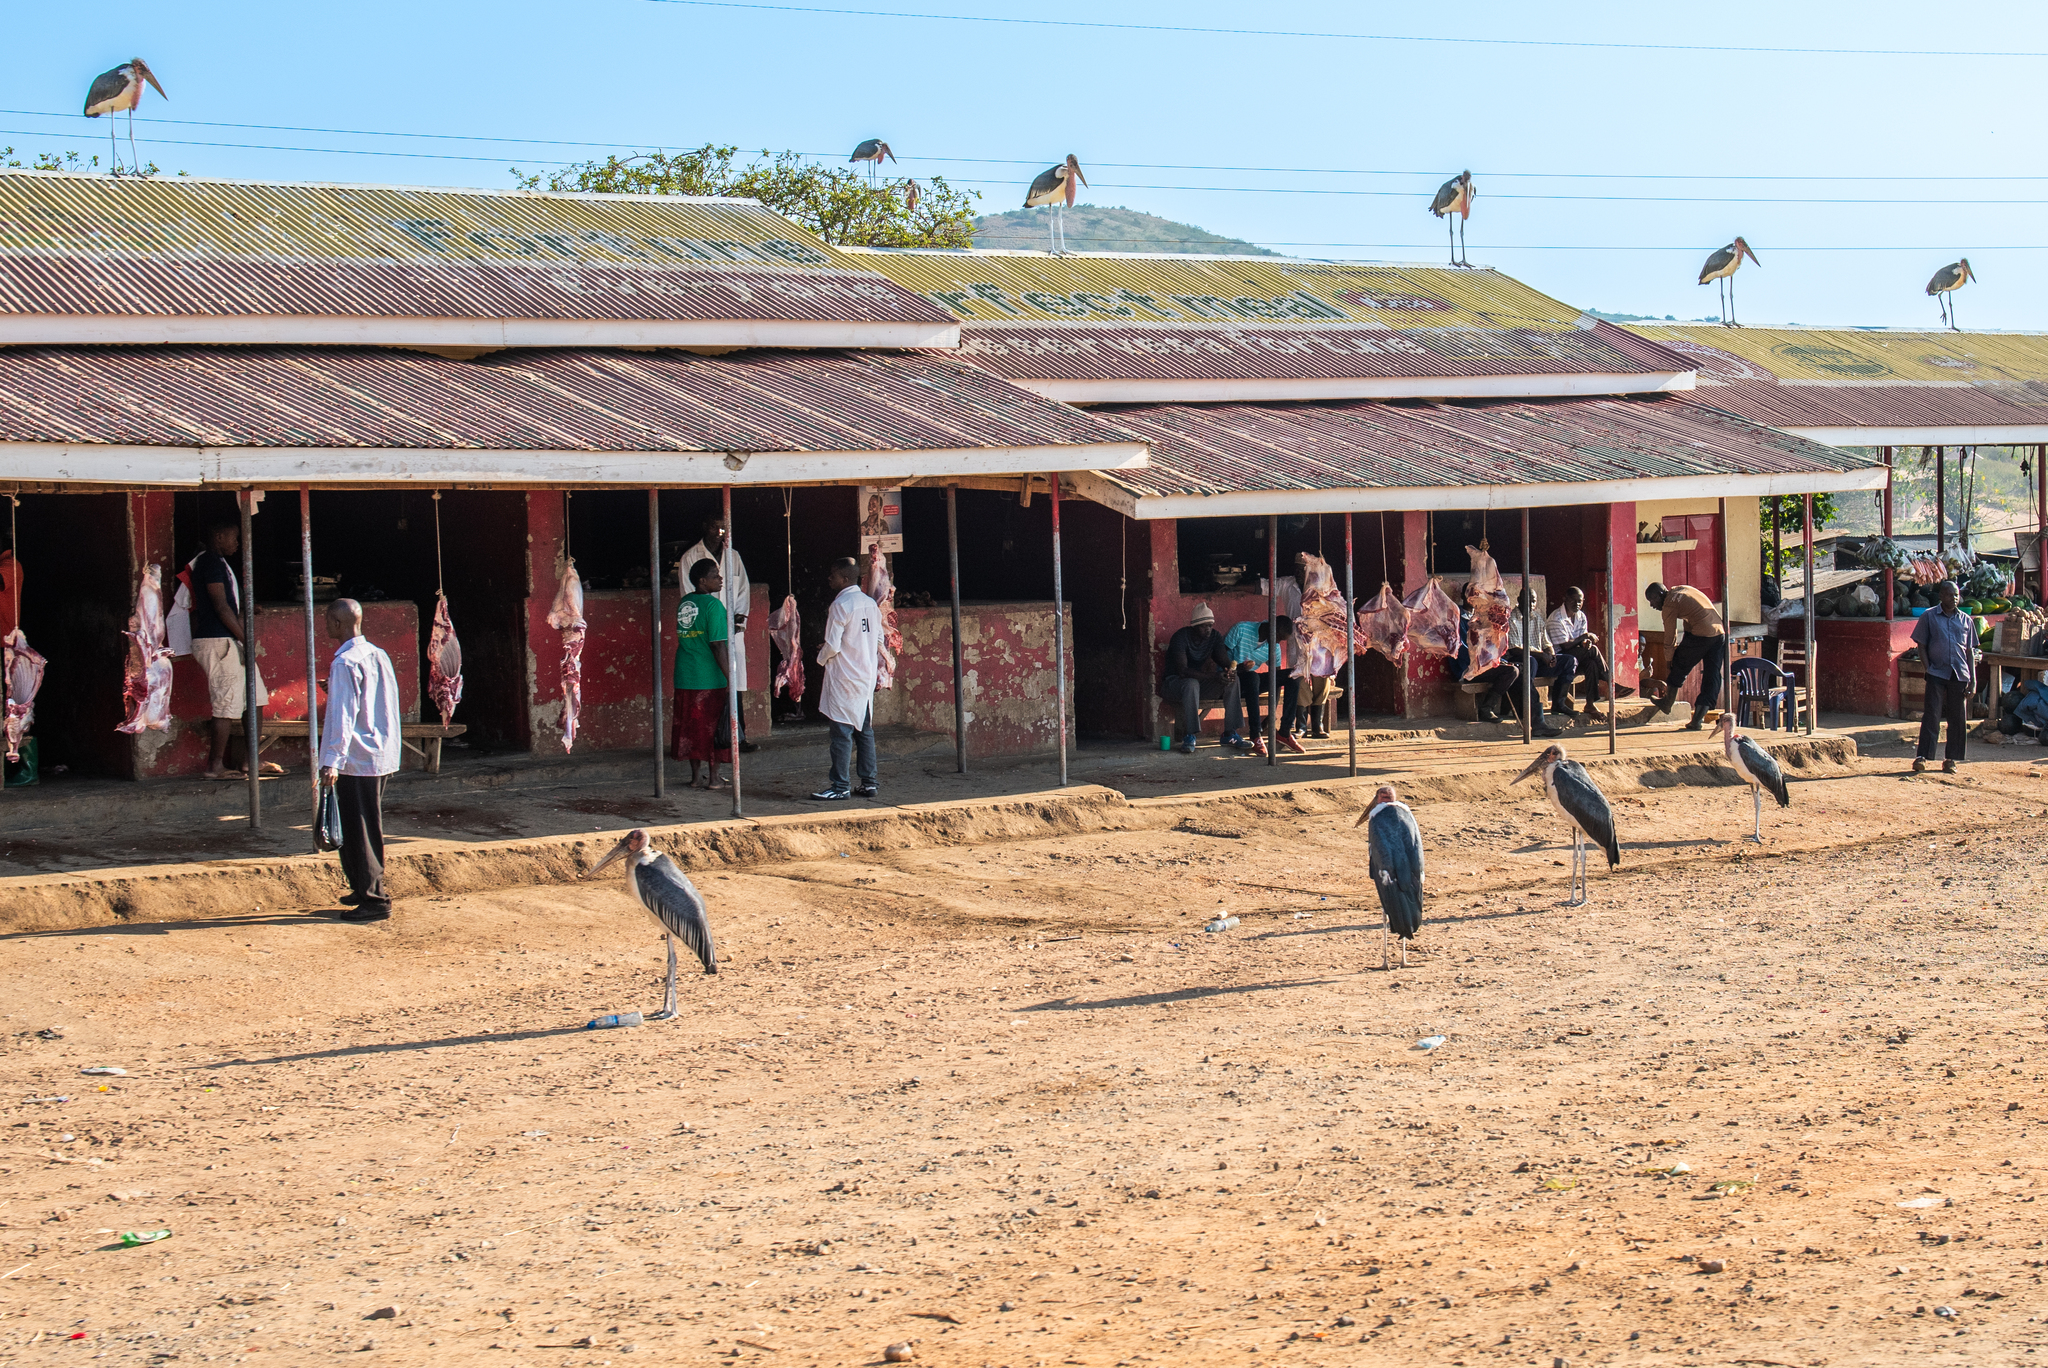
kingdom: Animalia
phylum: Chordata
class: Aves
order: Ciconiiformes
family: Ciconiidae
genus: Leptoptilos
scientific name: Leptoptilos crumenifer
